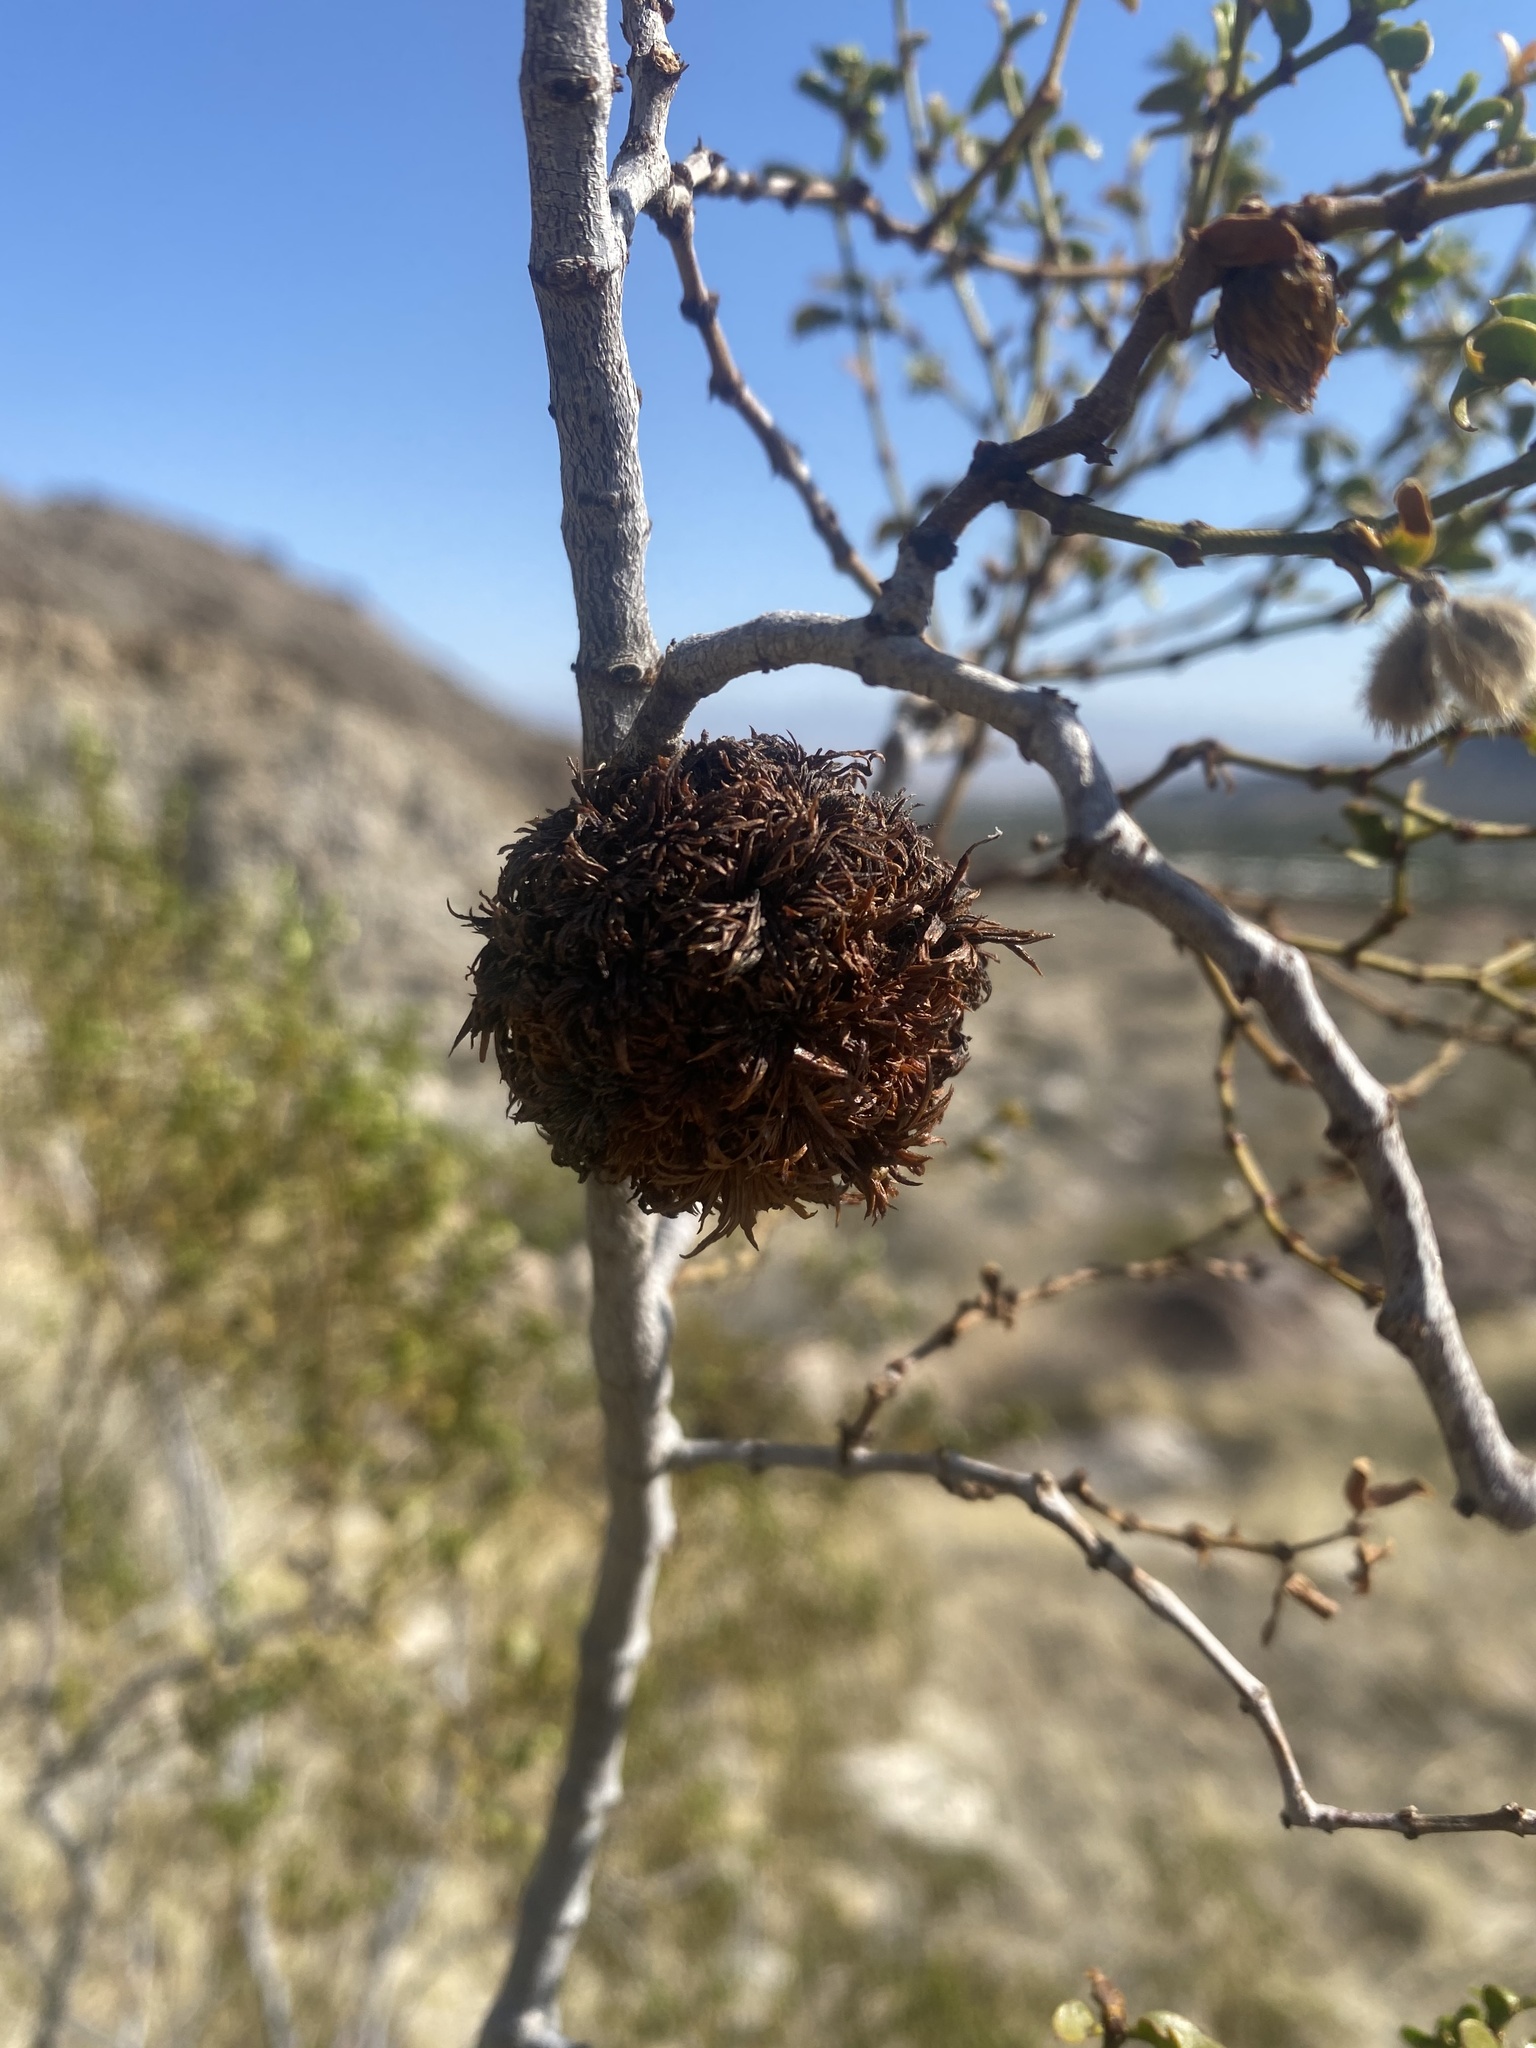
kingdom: Animalia
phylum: Arthropoda
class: Insecta
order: Diptera
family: Cecidomyiidae
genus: Asphondylia
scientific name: Asphondylia auripila
